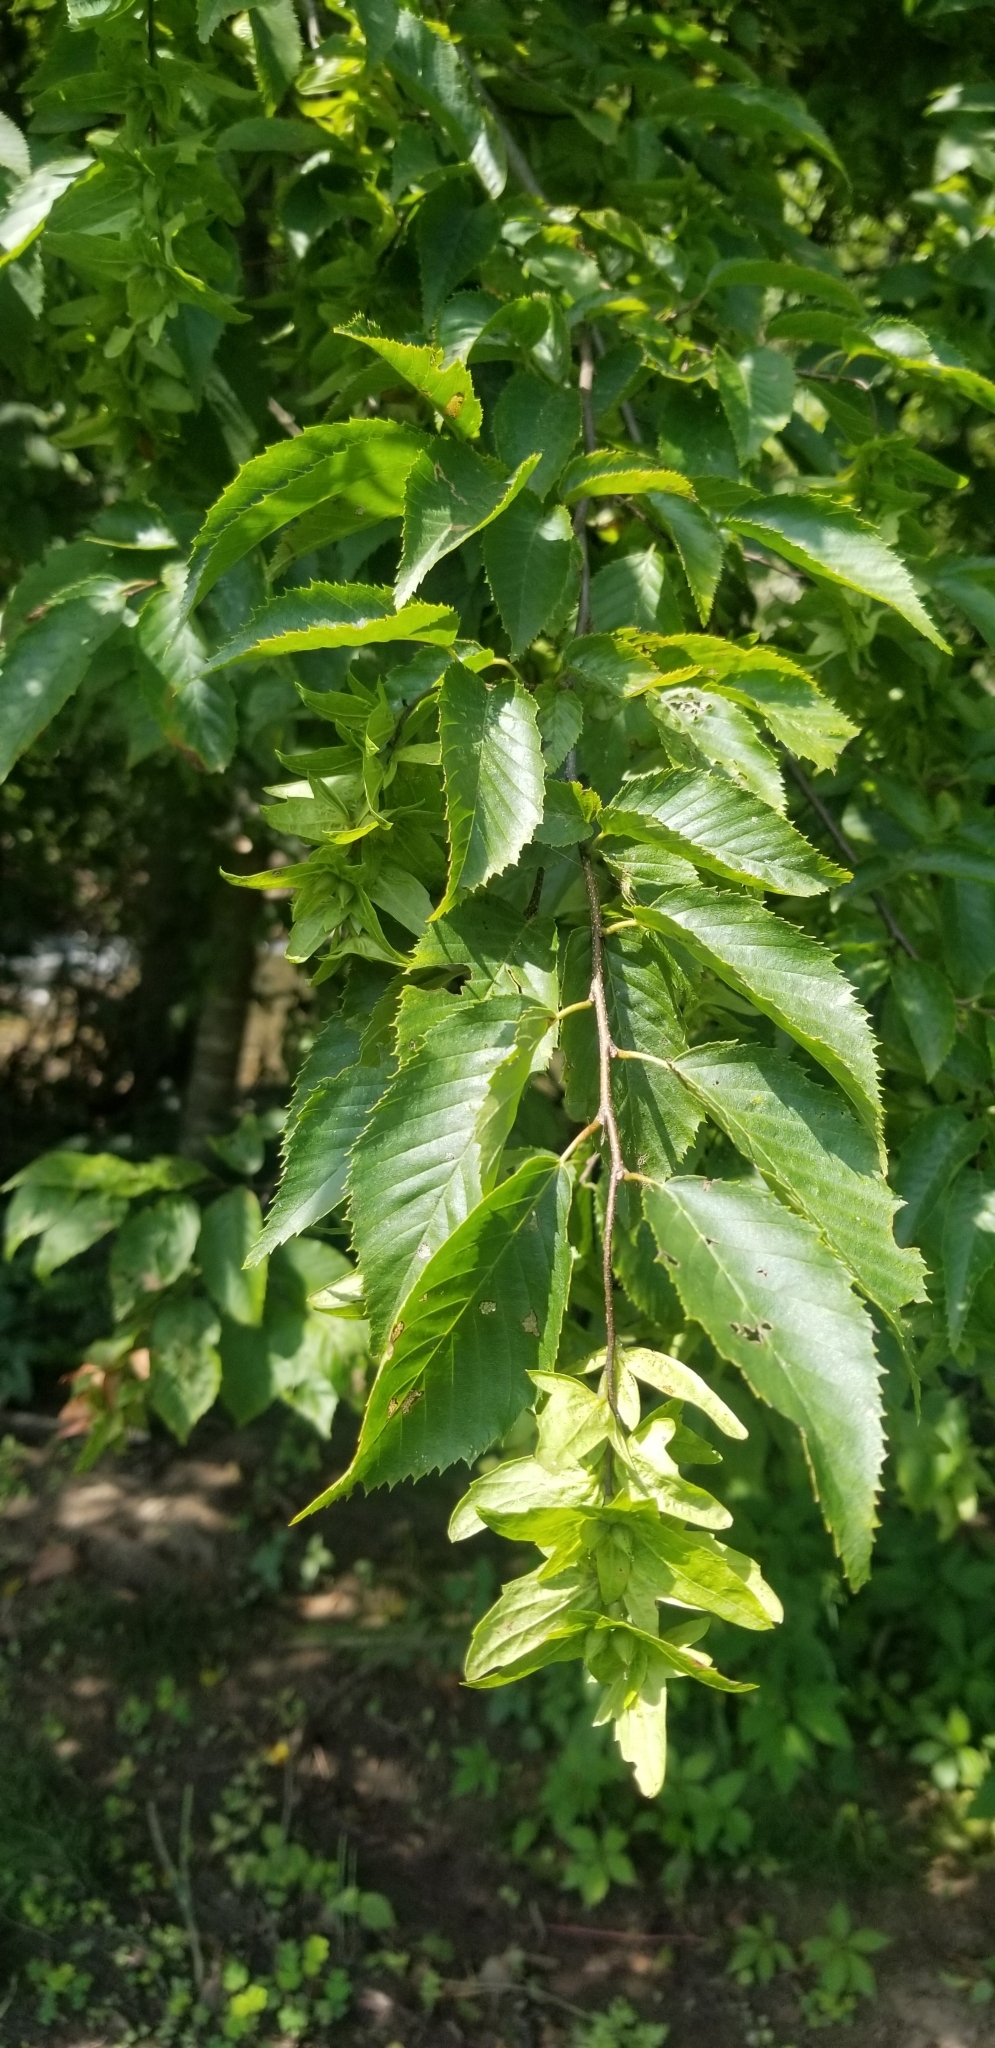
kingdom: Plantae
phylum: Tracheophyta
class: Magnoliopsida
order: Fagales
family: Betulaceae
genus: Carpinus
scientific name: Carpinus caroliniana
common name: American hornbeam
